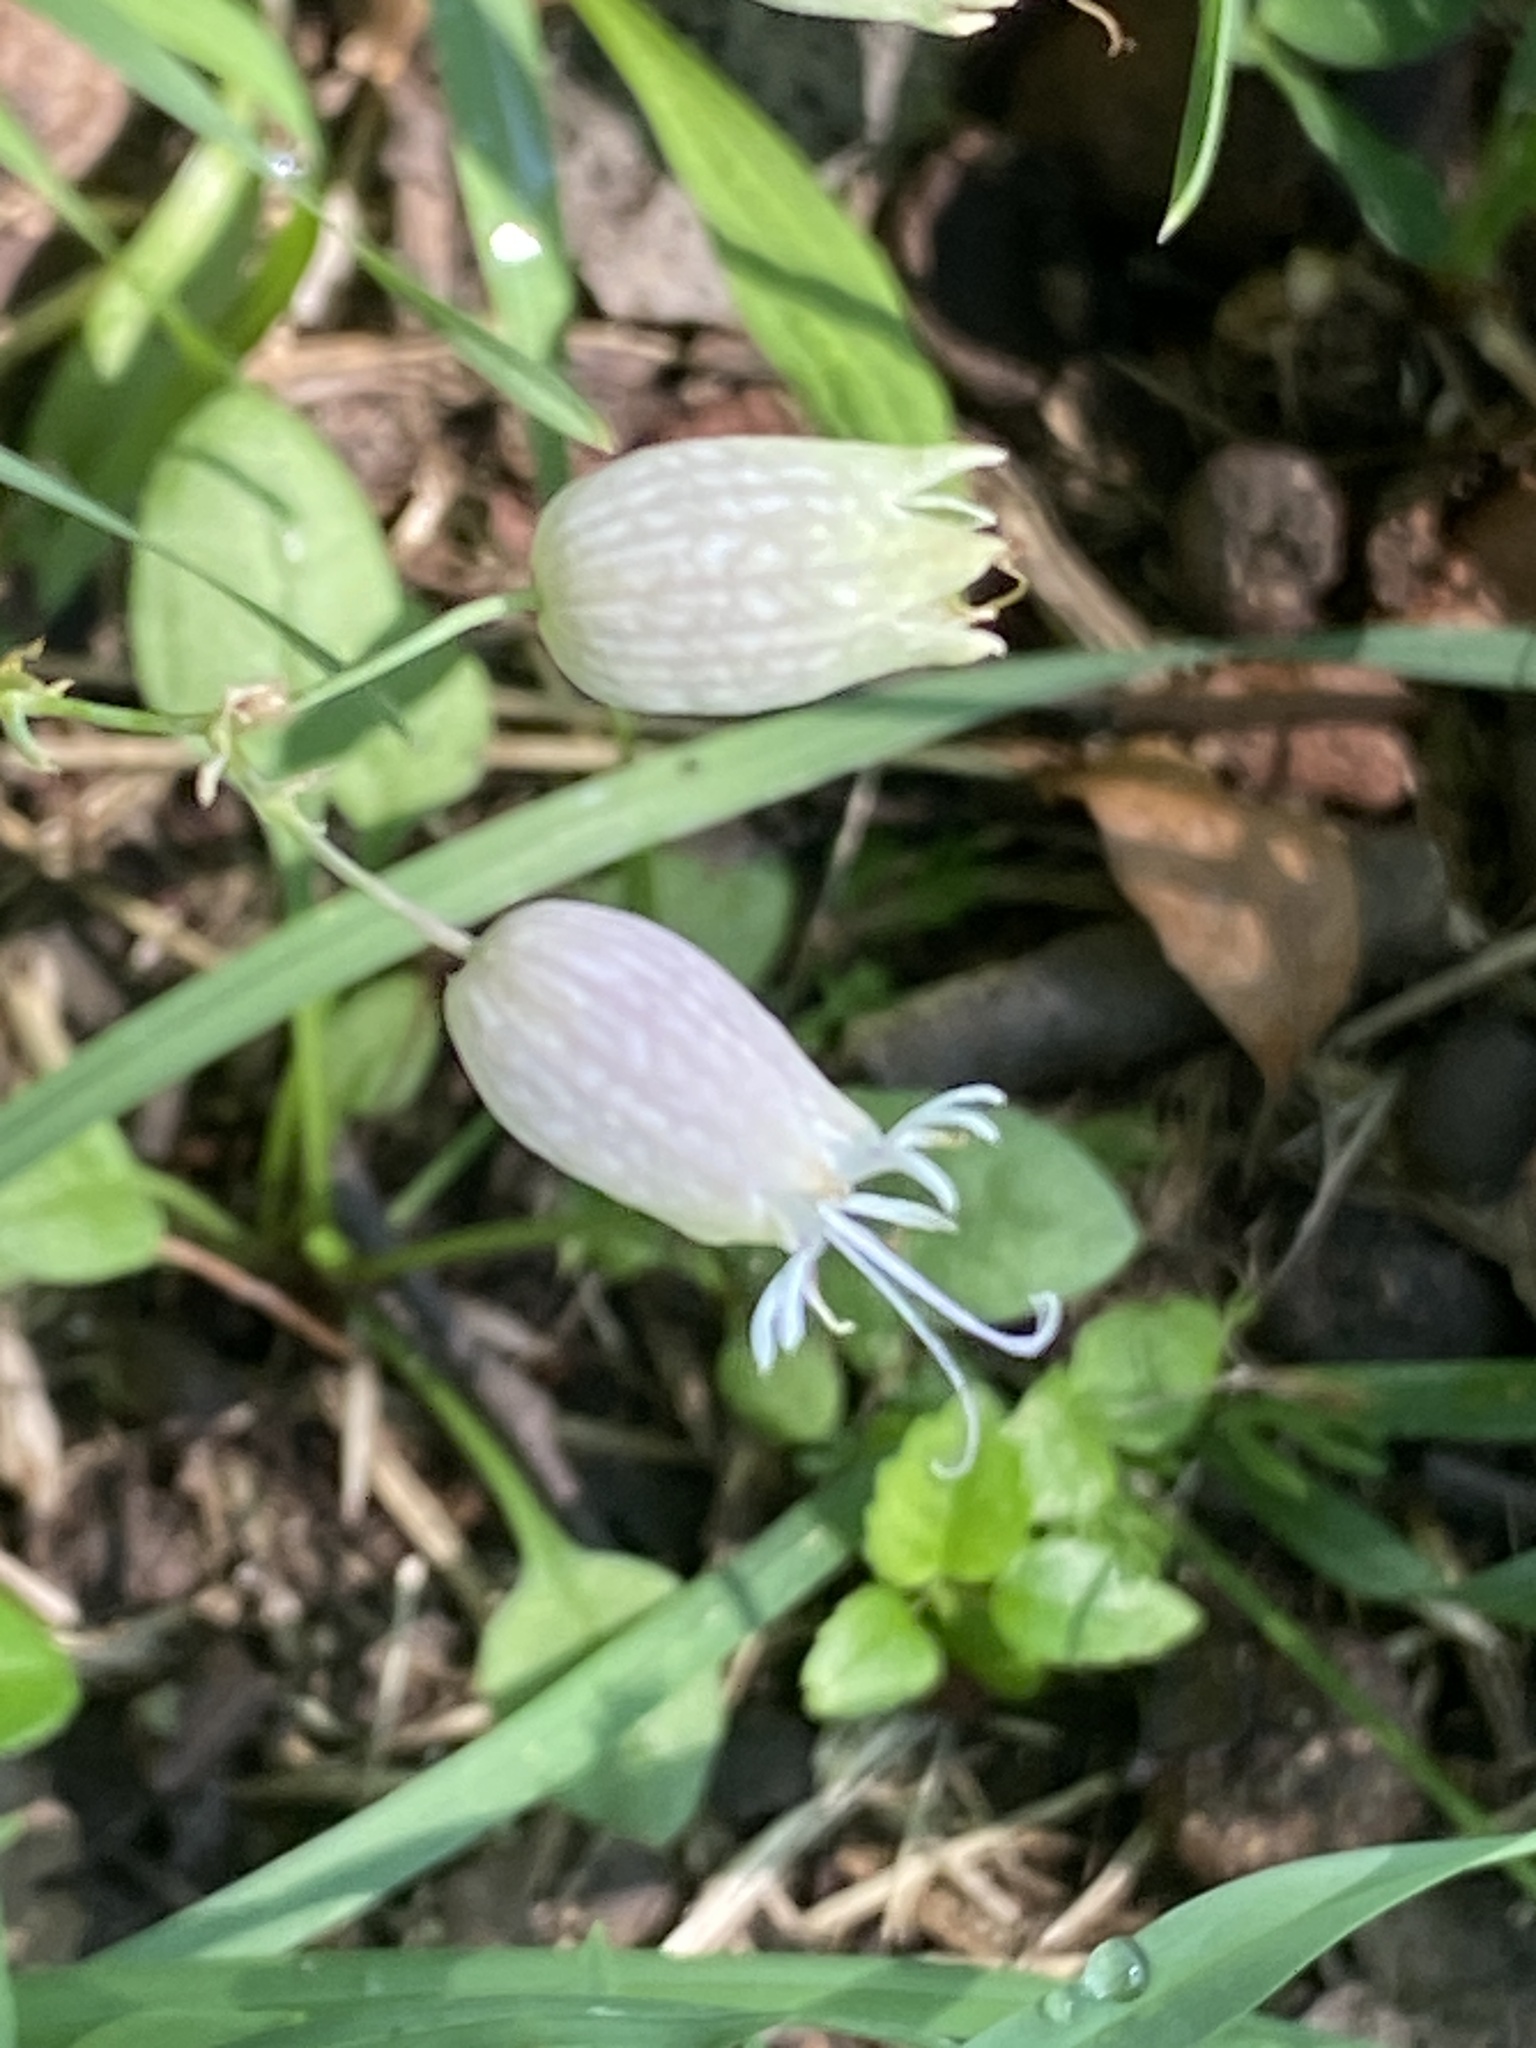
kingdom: Plantae
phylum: Tracheophyta
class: Magnoliopsida
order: Caryophyllales
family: Caryophyllaceae
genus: Silene
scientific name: Silene vulgaris
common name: Bladder campion
